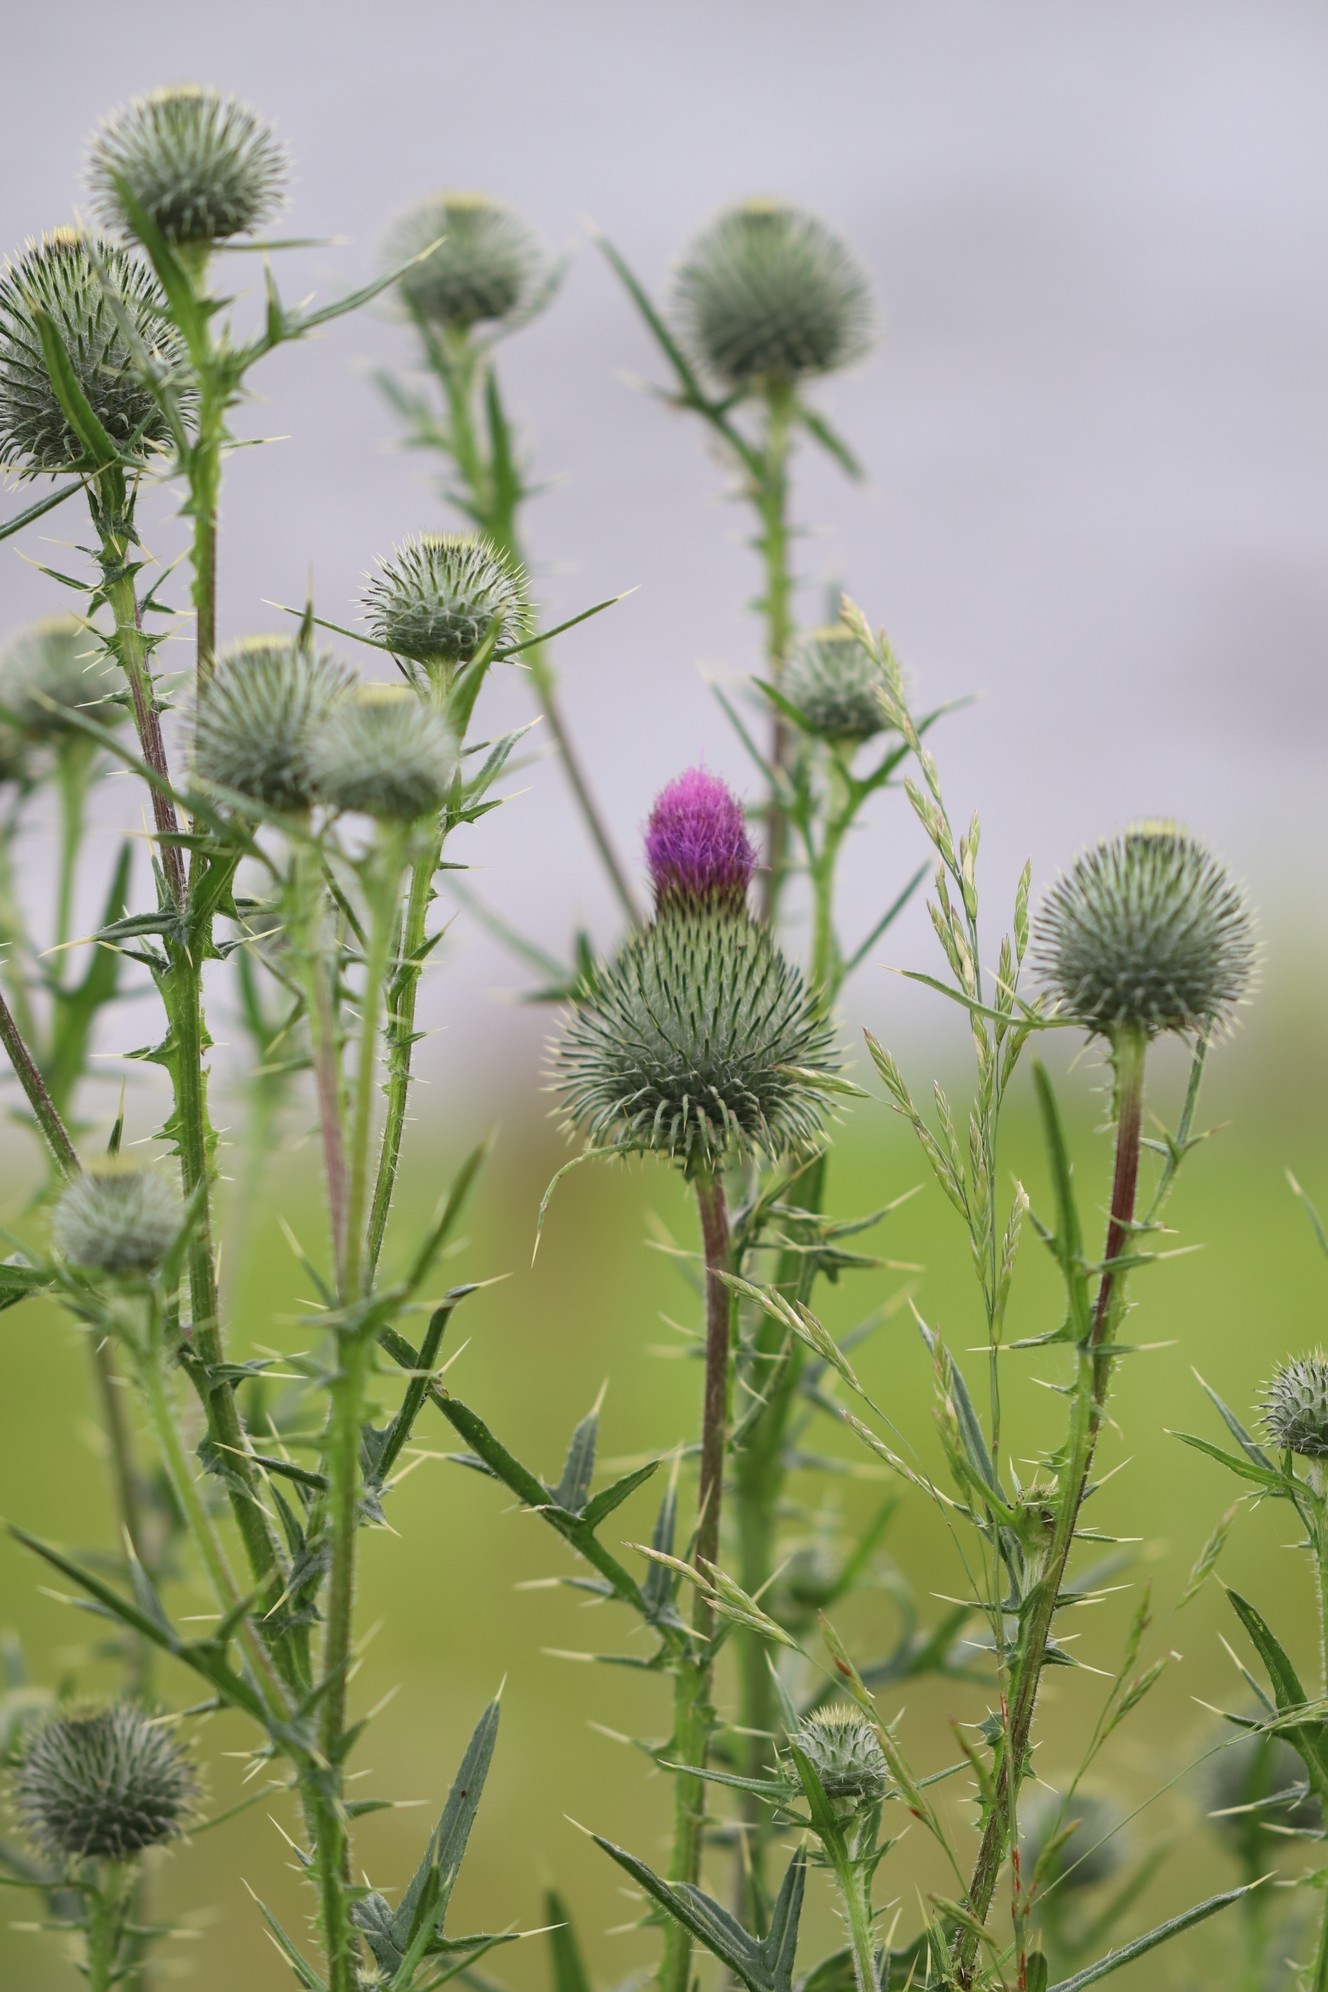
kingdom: Plantae
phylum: Tracheophyta
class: Magnoliopsida
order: Asterales
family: Asteraceae
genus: Cirsium
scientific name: Cirsium vulgare
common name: Bull thistle
